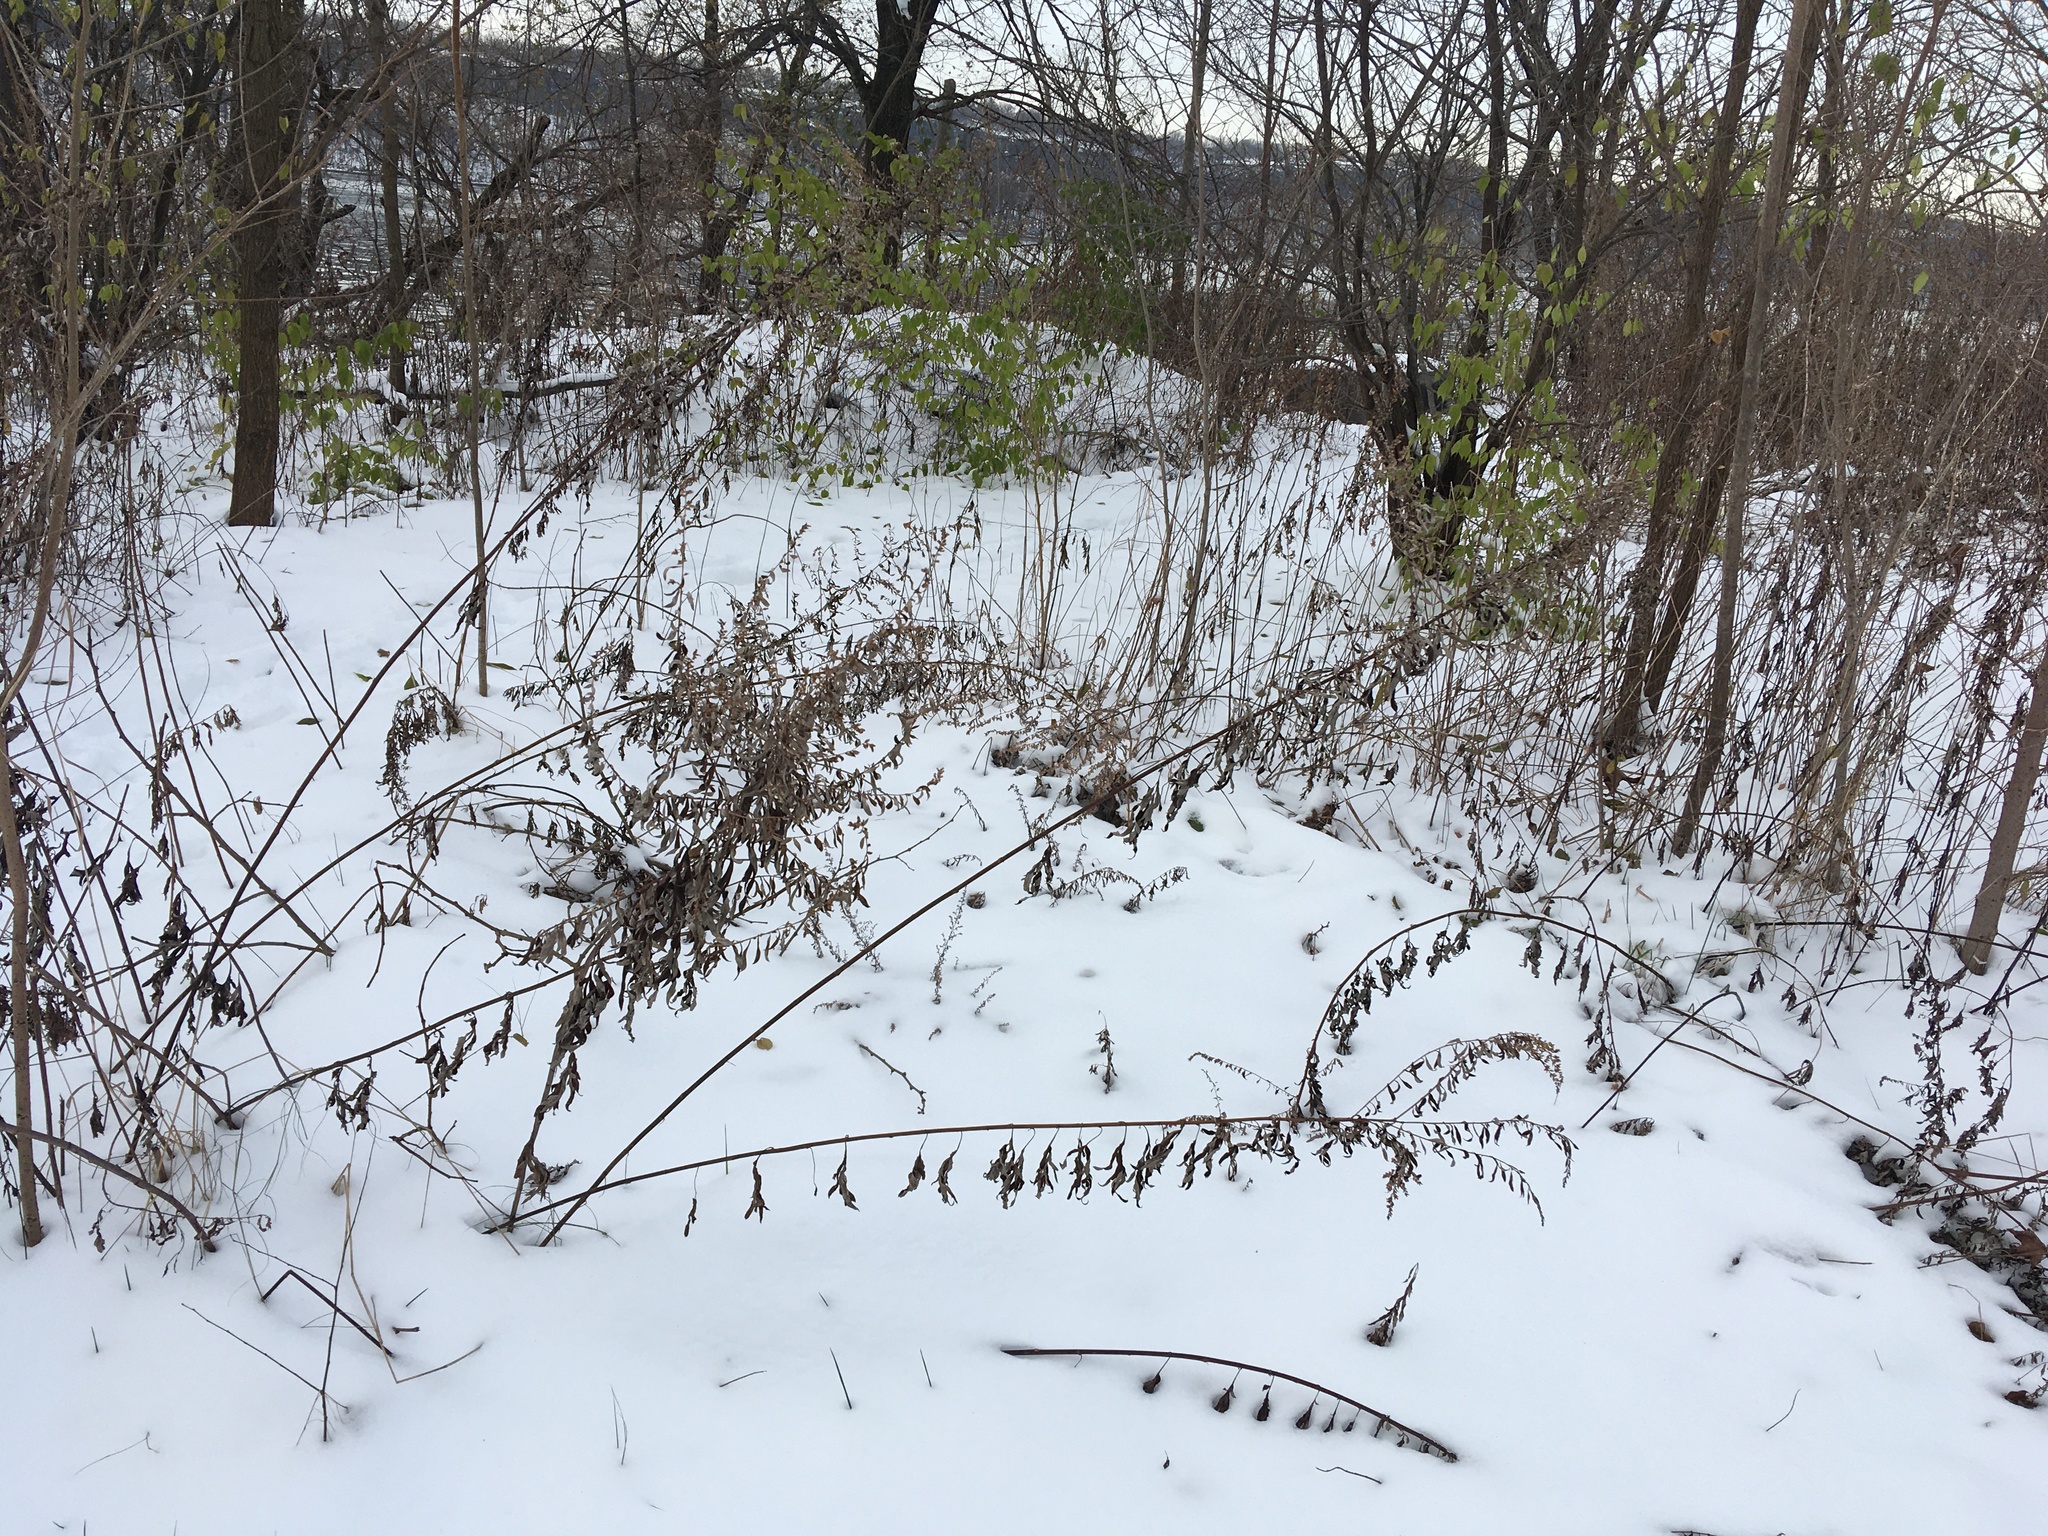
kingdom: Plantae
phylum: Tracheophyta
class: Magnoliopsida
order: Asterales
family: Asteraceae
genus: Artemisia
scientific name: Artemisia vulgaris
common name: Mugwort
